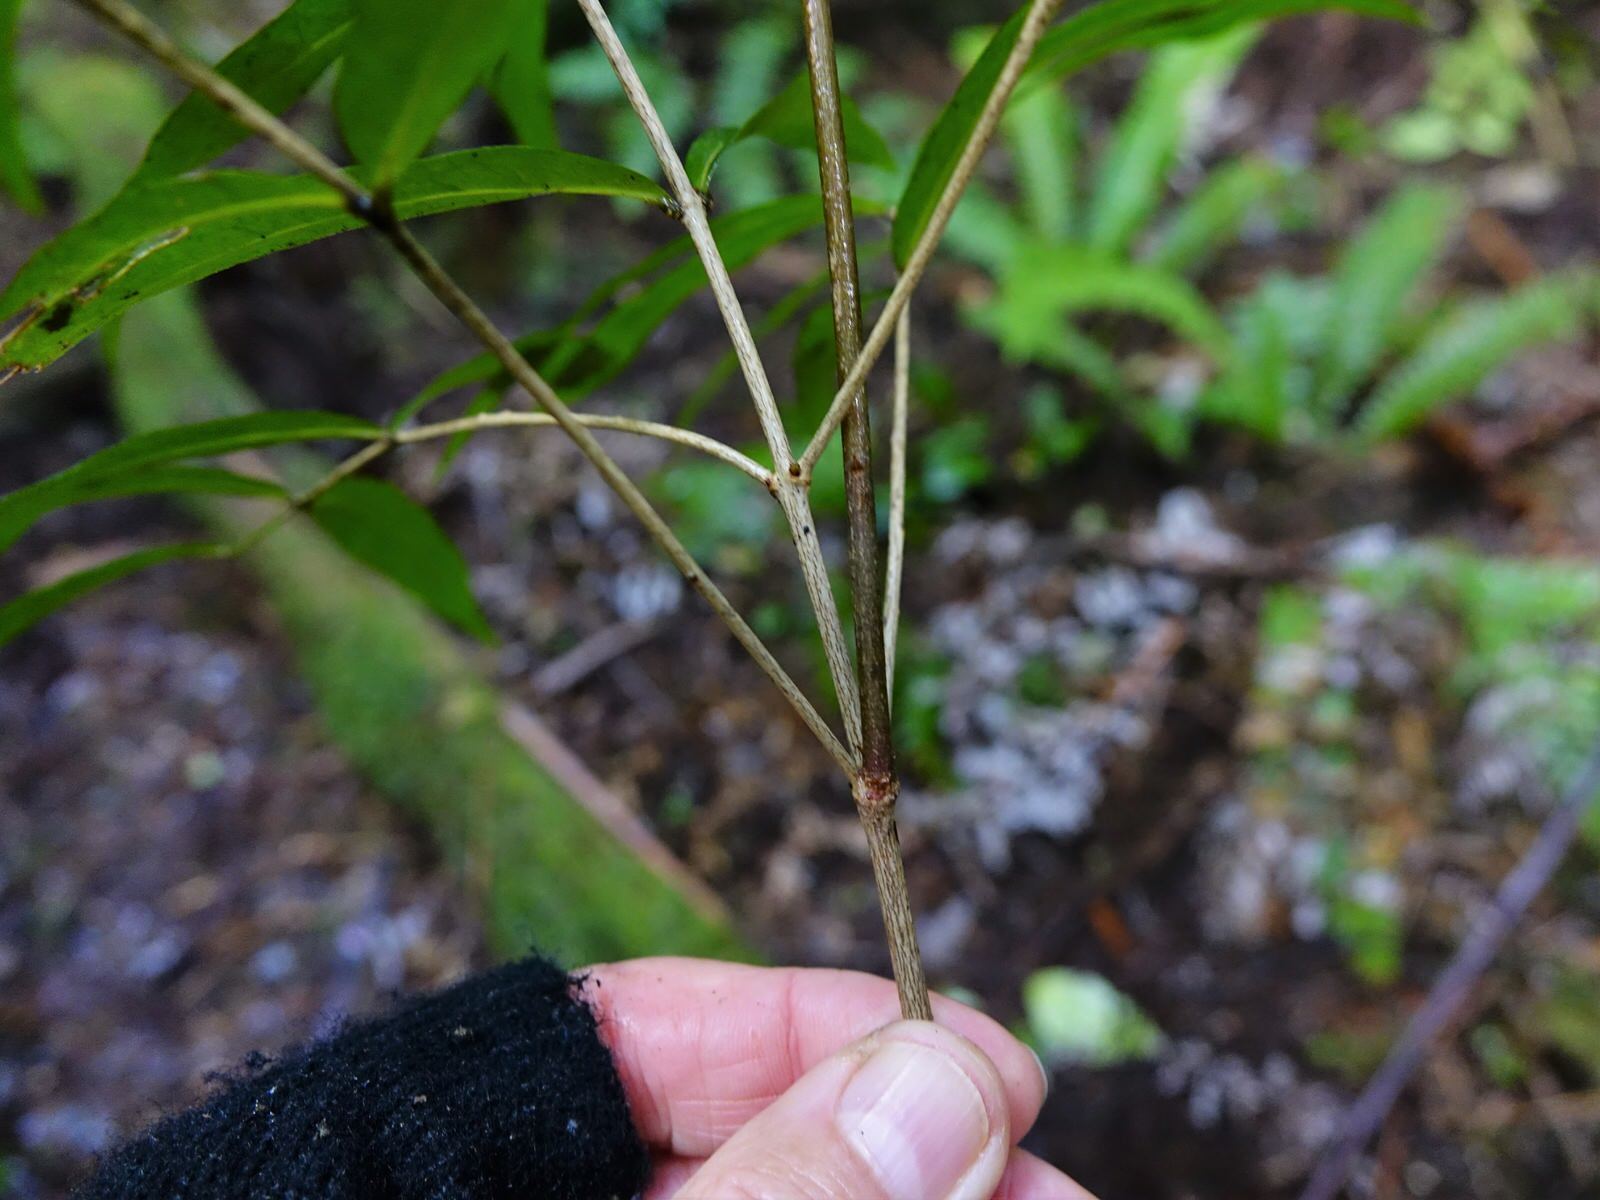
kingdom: Plantae
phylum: Tracheophyta
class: Magnoliopsida
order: Santalales
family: Nanodeaceae
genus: Mida
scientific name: Mida salicifolia
